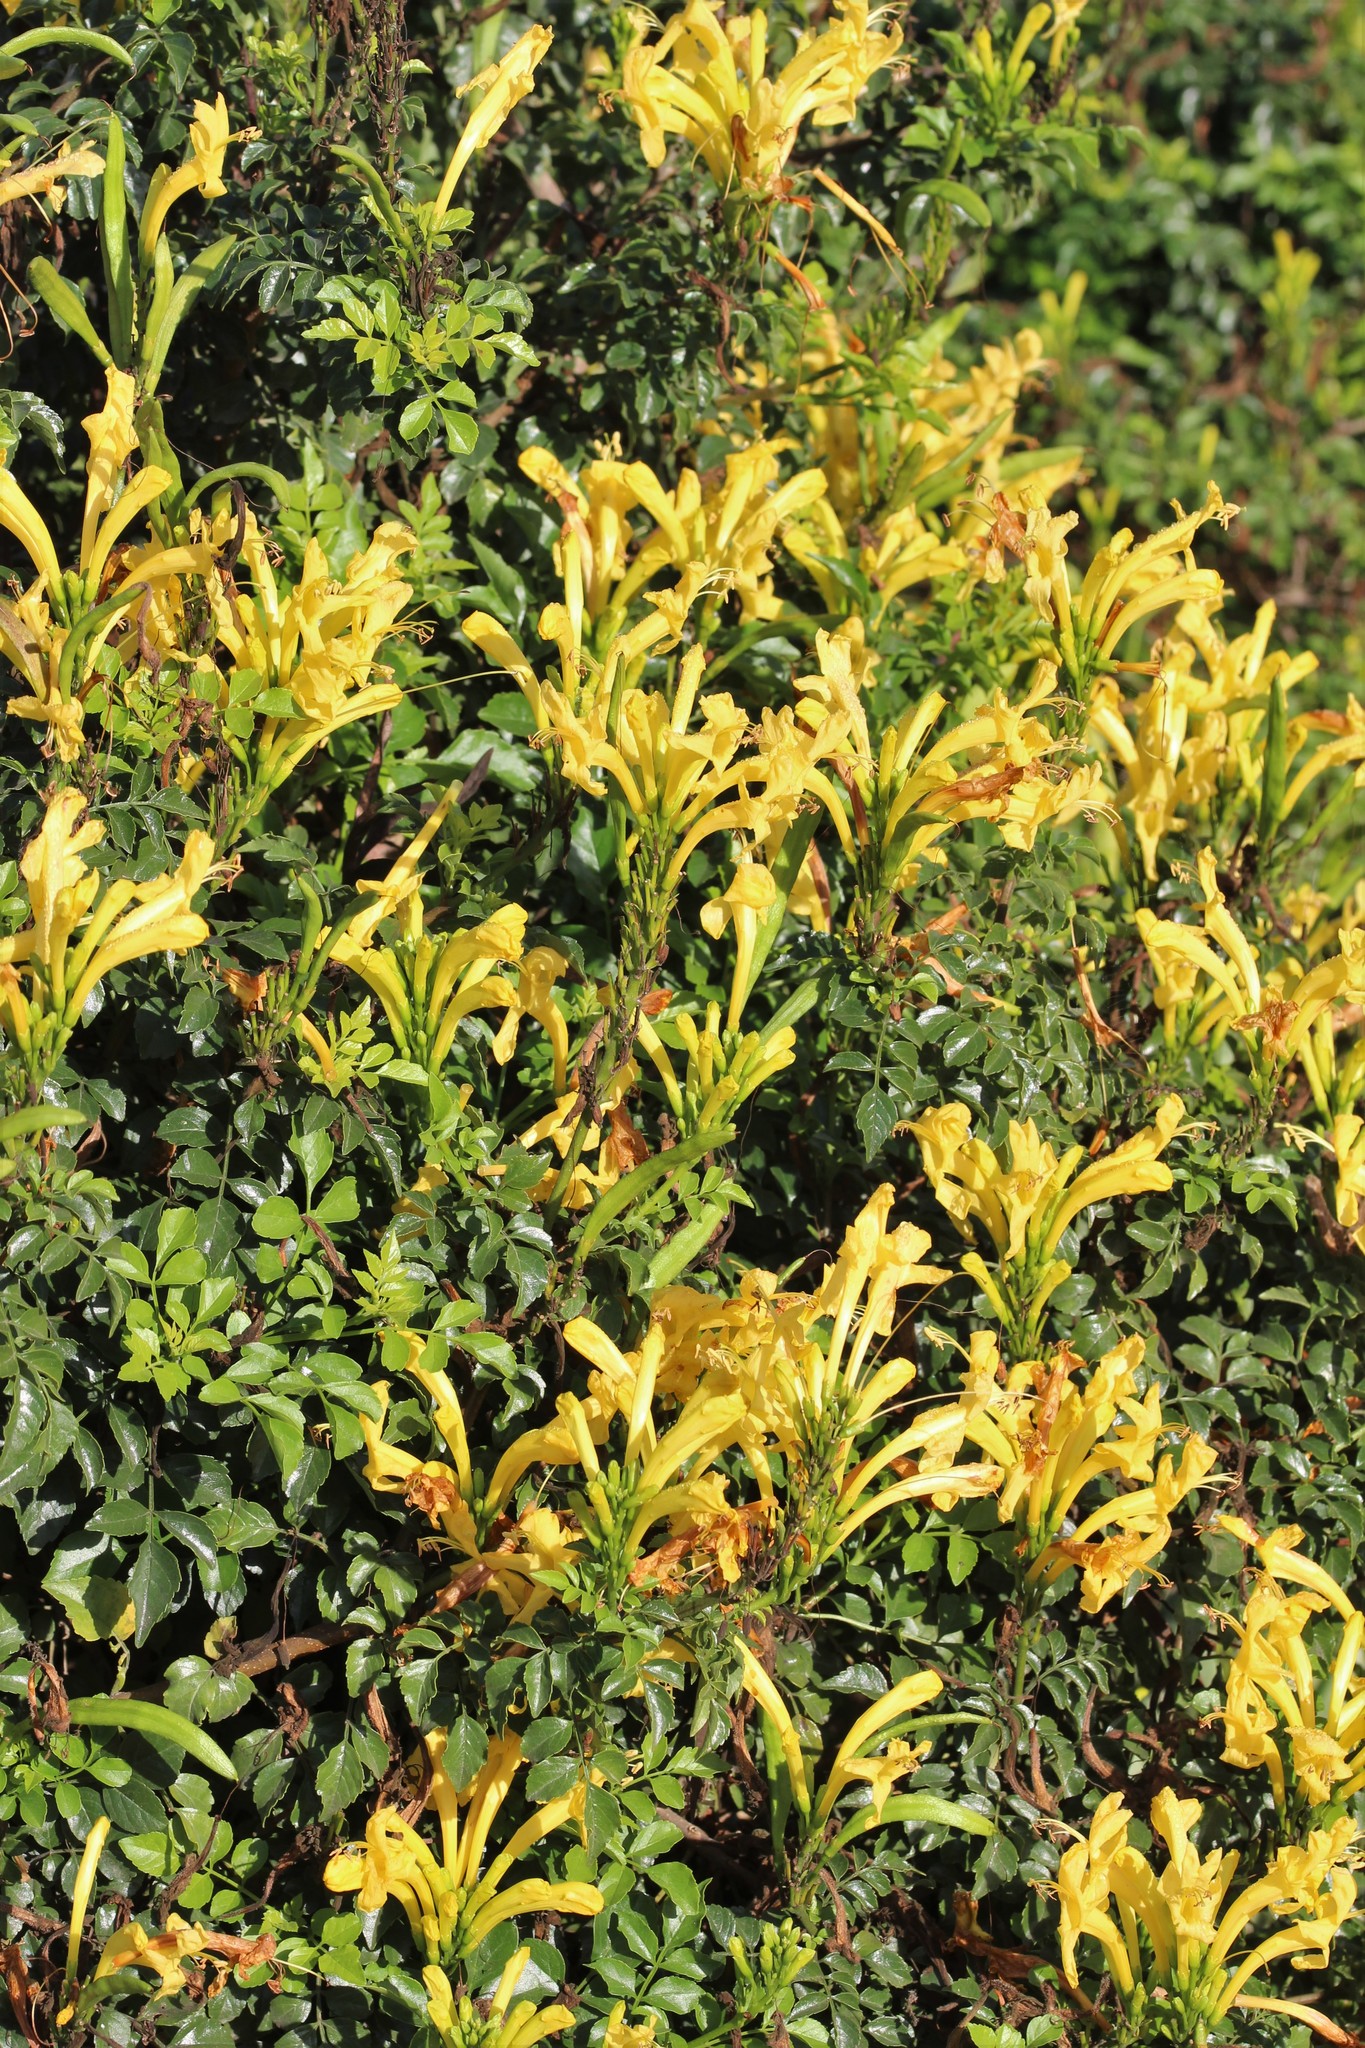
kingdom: Plantae
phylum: Tracheophyta
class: Magnoliopsida
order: Lamiales
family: Bignoniaceae
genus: Tecomaria
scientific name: Tecomaria capensis
